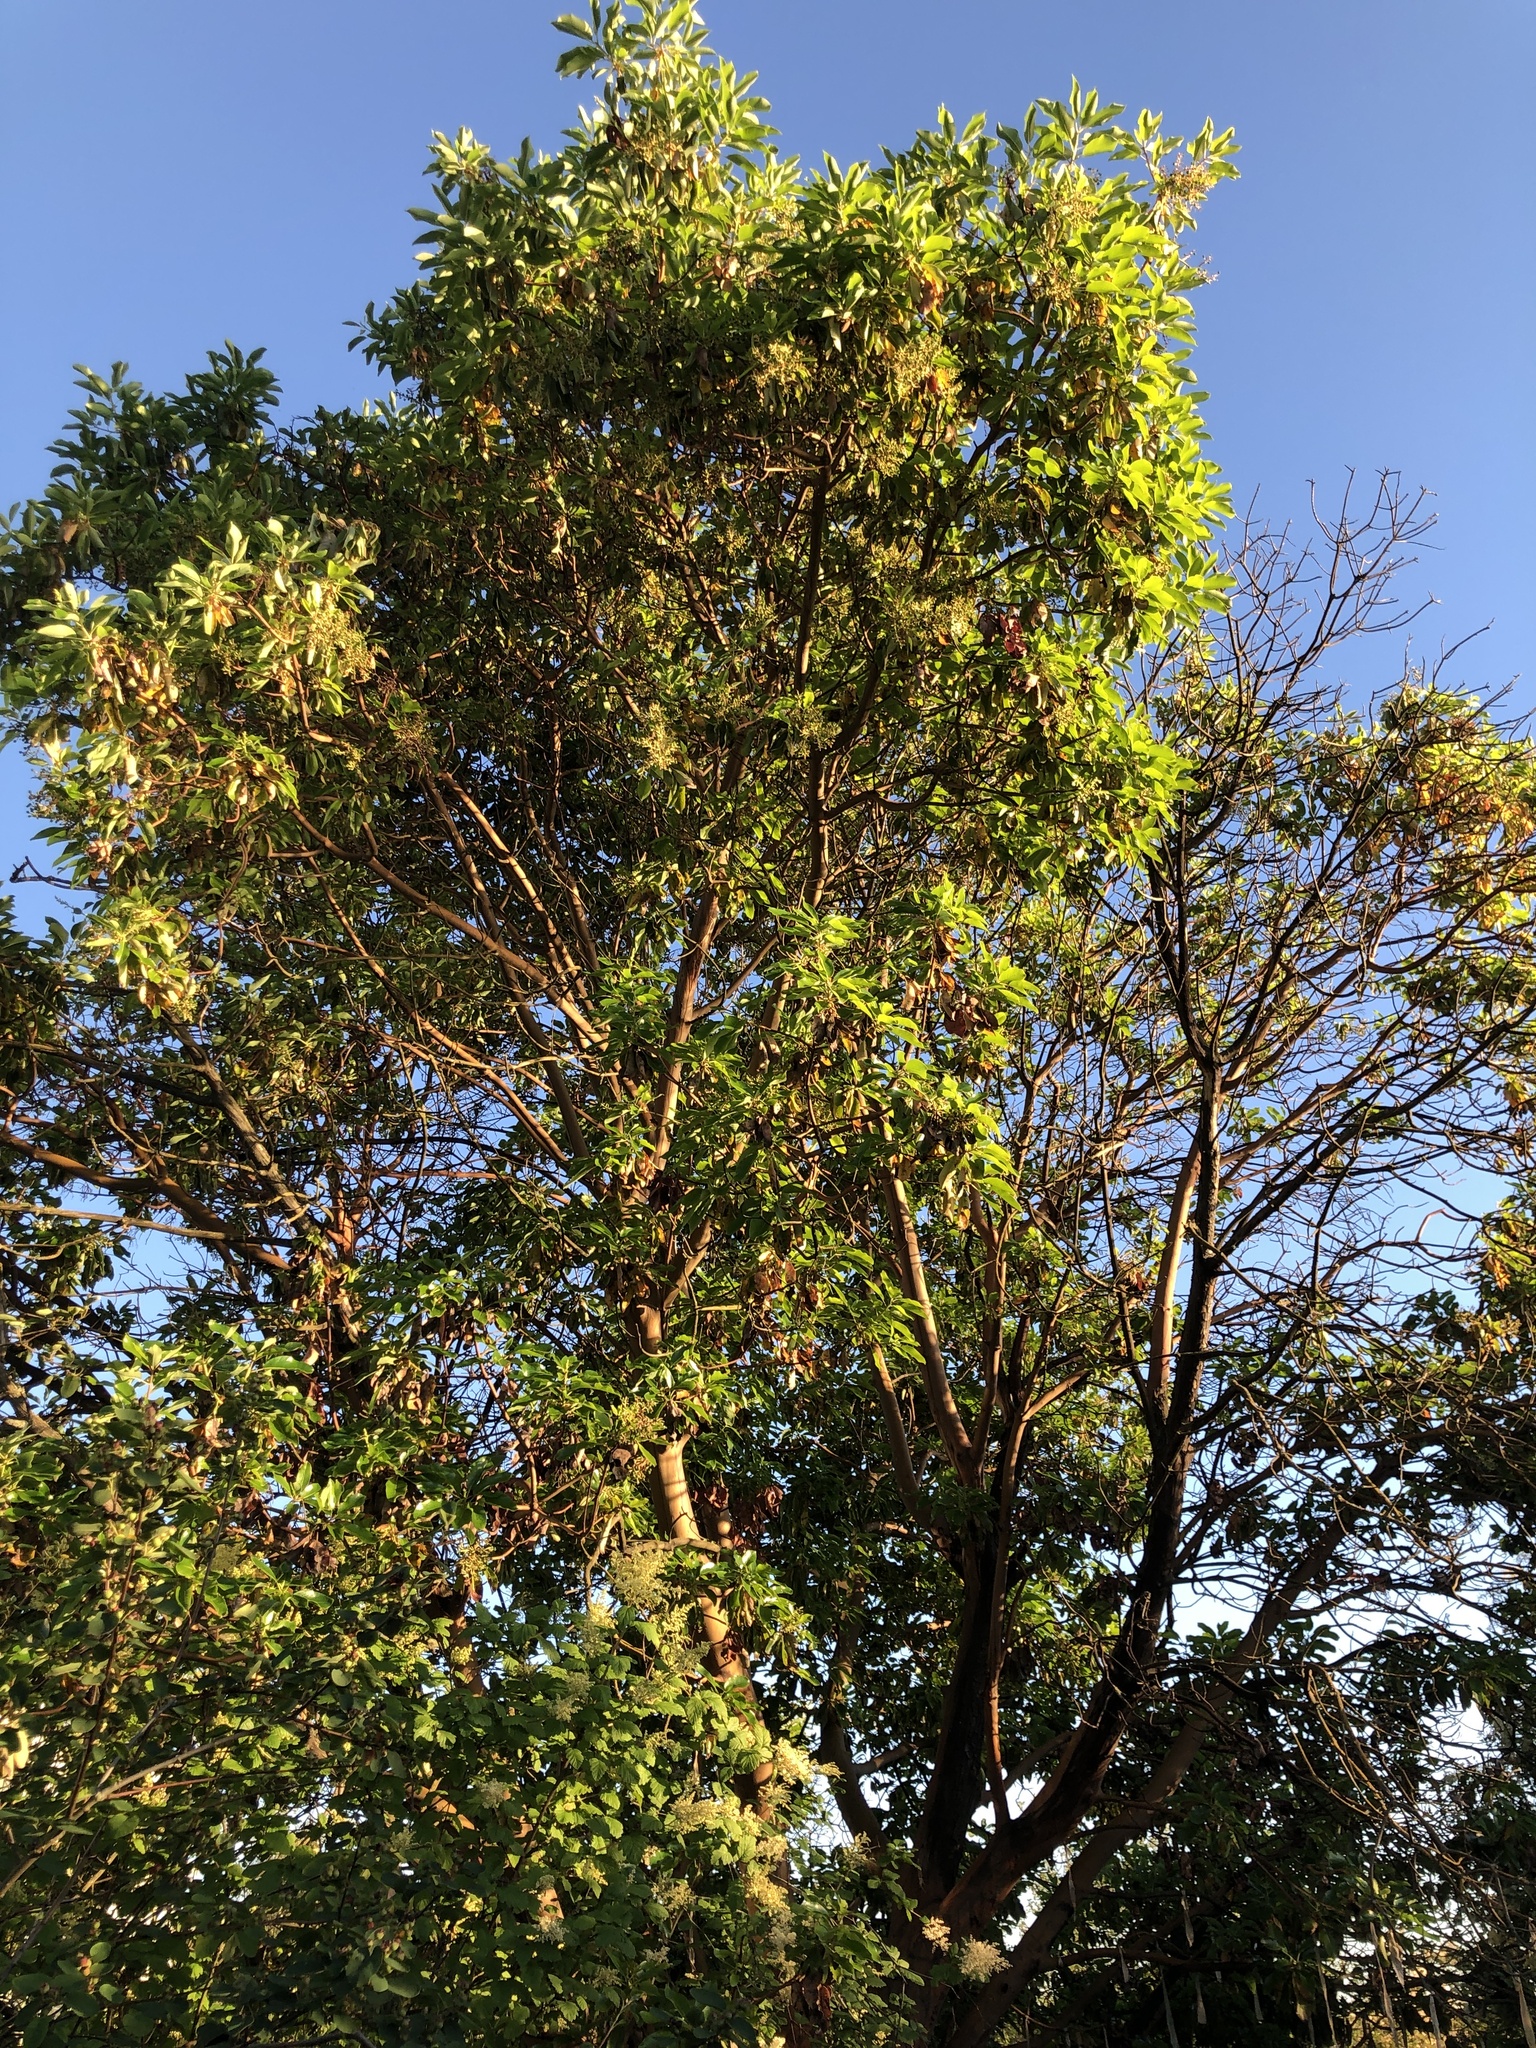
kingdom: Plantae
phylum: Tracheophyta
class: Magnoliopsida
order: Ericales
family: Ericaceae
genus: Arbutus
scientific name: Arbutus menziesii
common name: Pacific madrone
